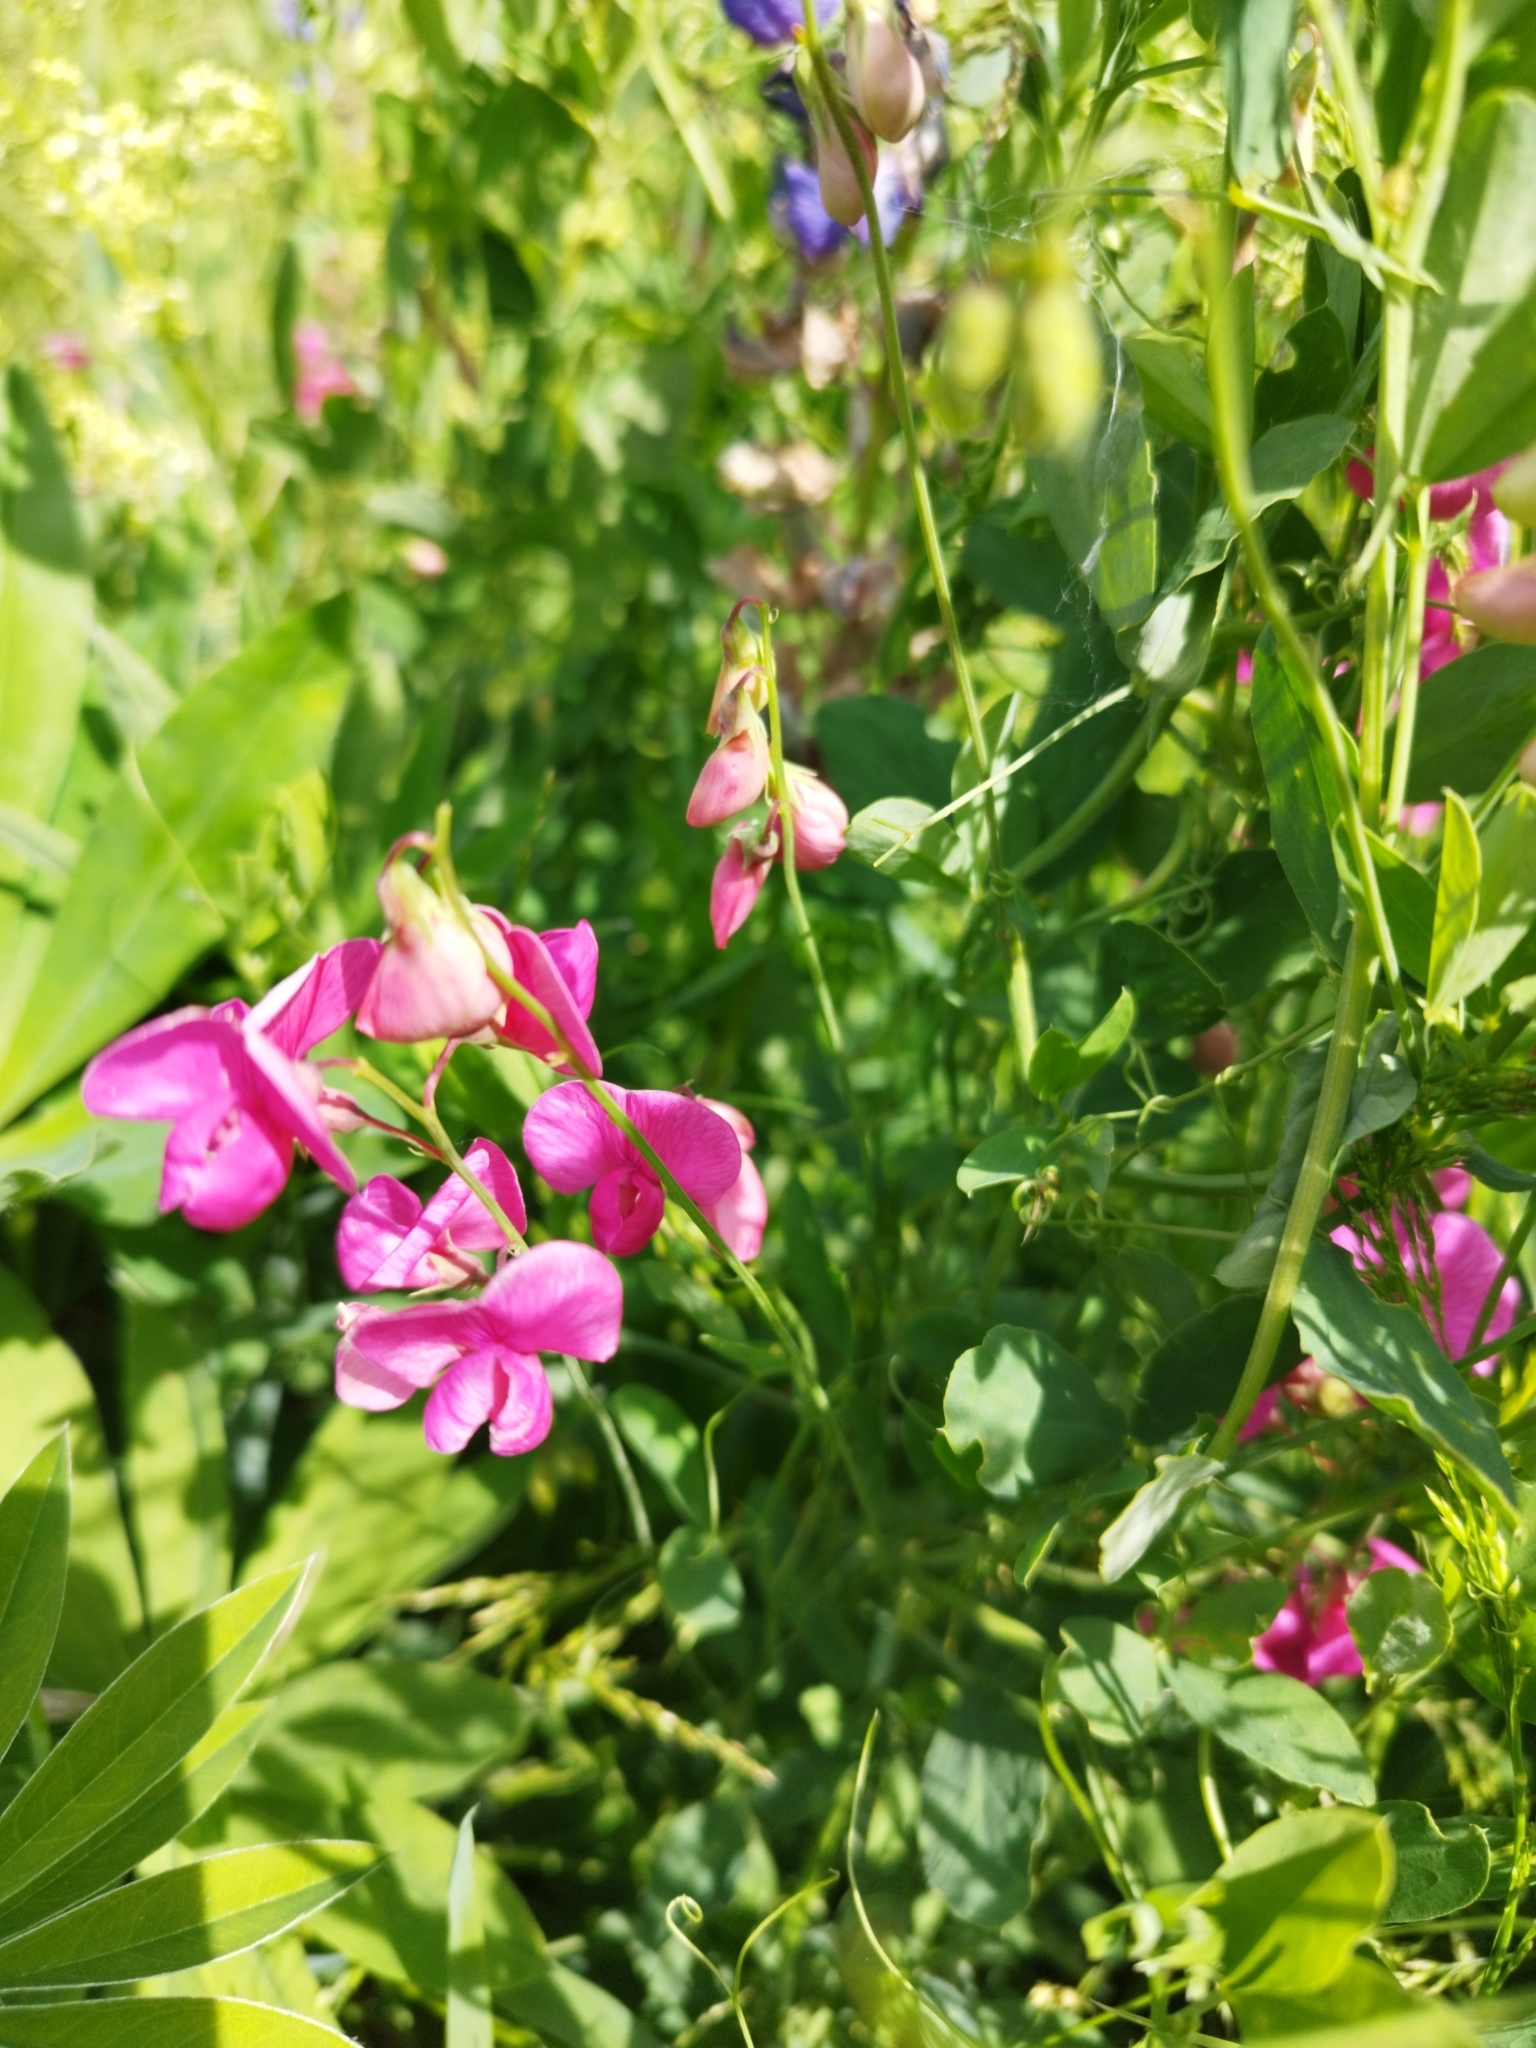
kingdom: Plantae
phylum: Tracheophyta
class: Magnoliopsida
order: Fabales
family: Fabaceae
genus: Lathyrus
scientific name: Lathyrus tuberosus
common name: Tuberous pea
